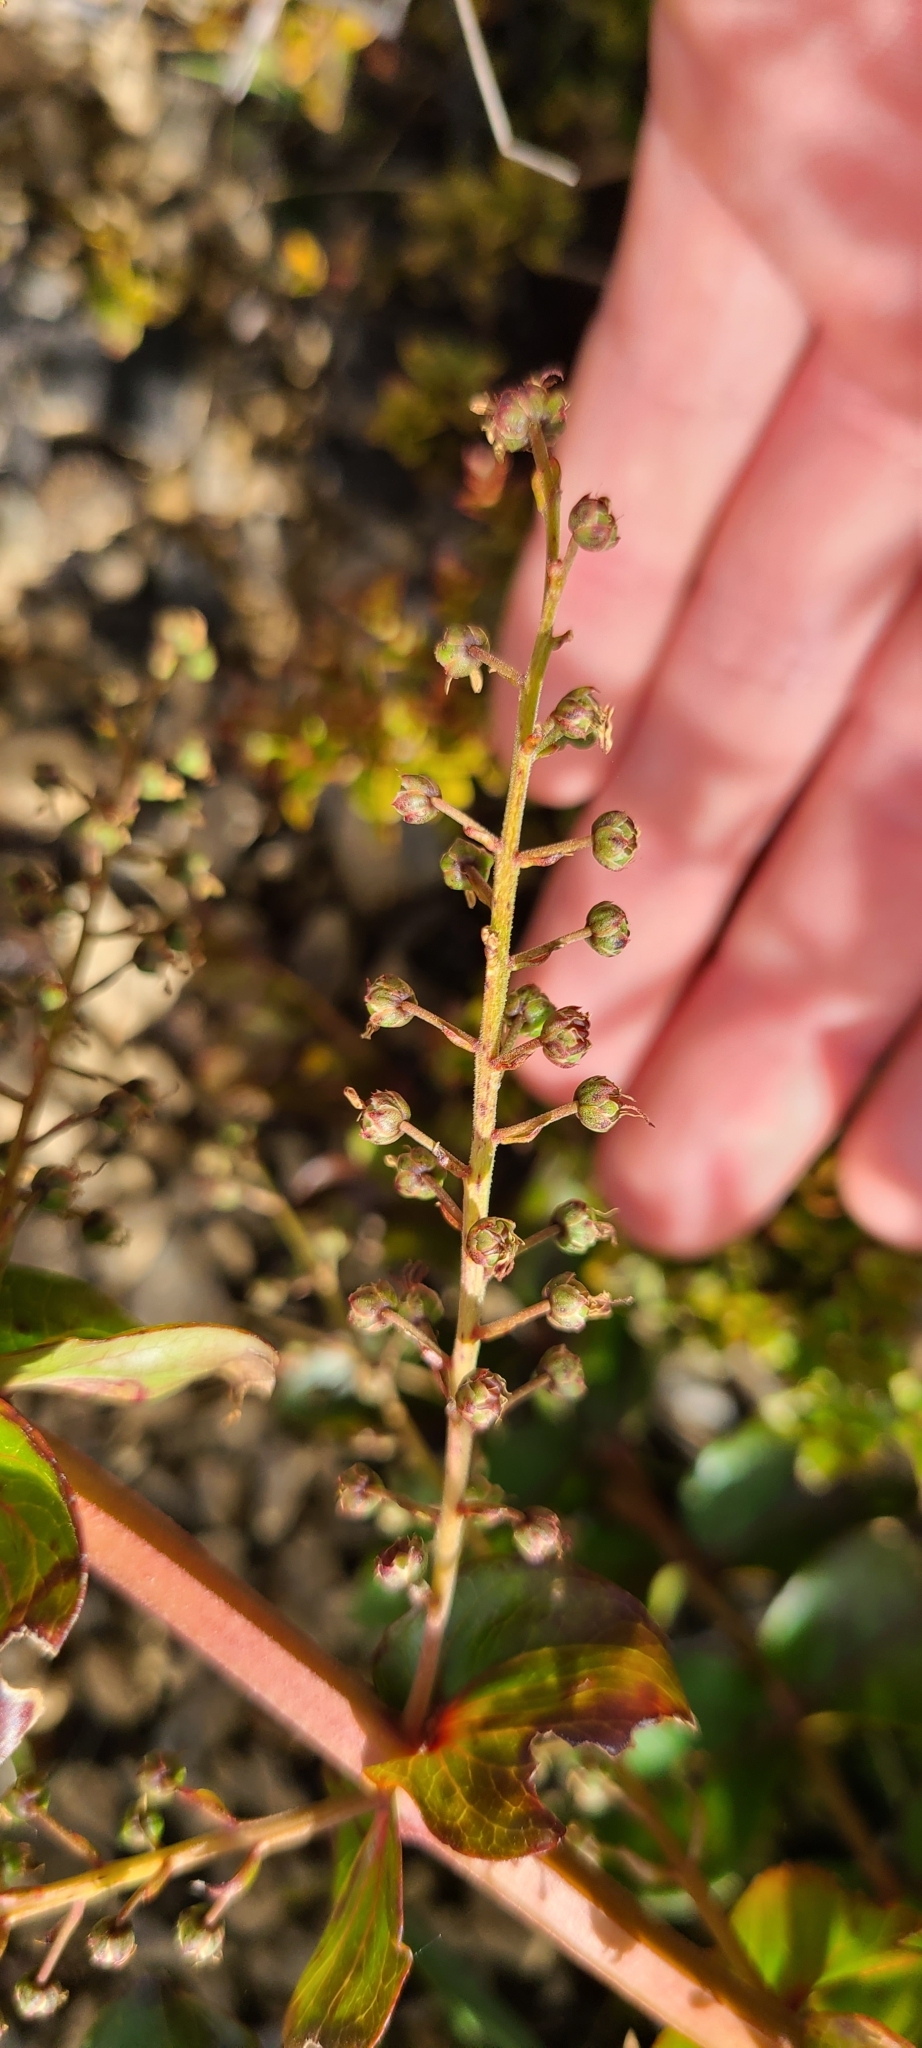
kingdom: Plantae
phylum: Tracheophyta
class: Magnoliopsida
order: Cucurbitales
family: Coriariaceae
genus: Coriaria
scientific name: Coriaria sarmentosa
